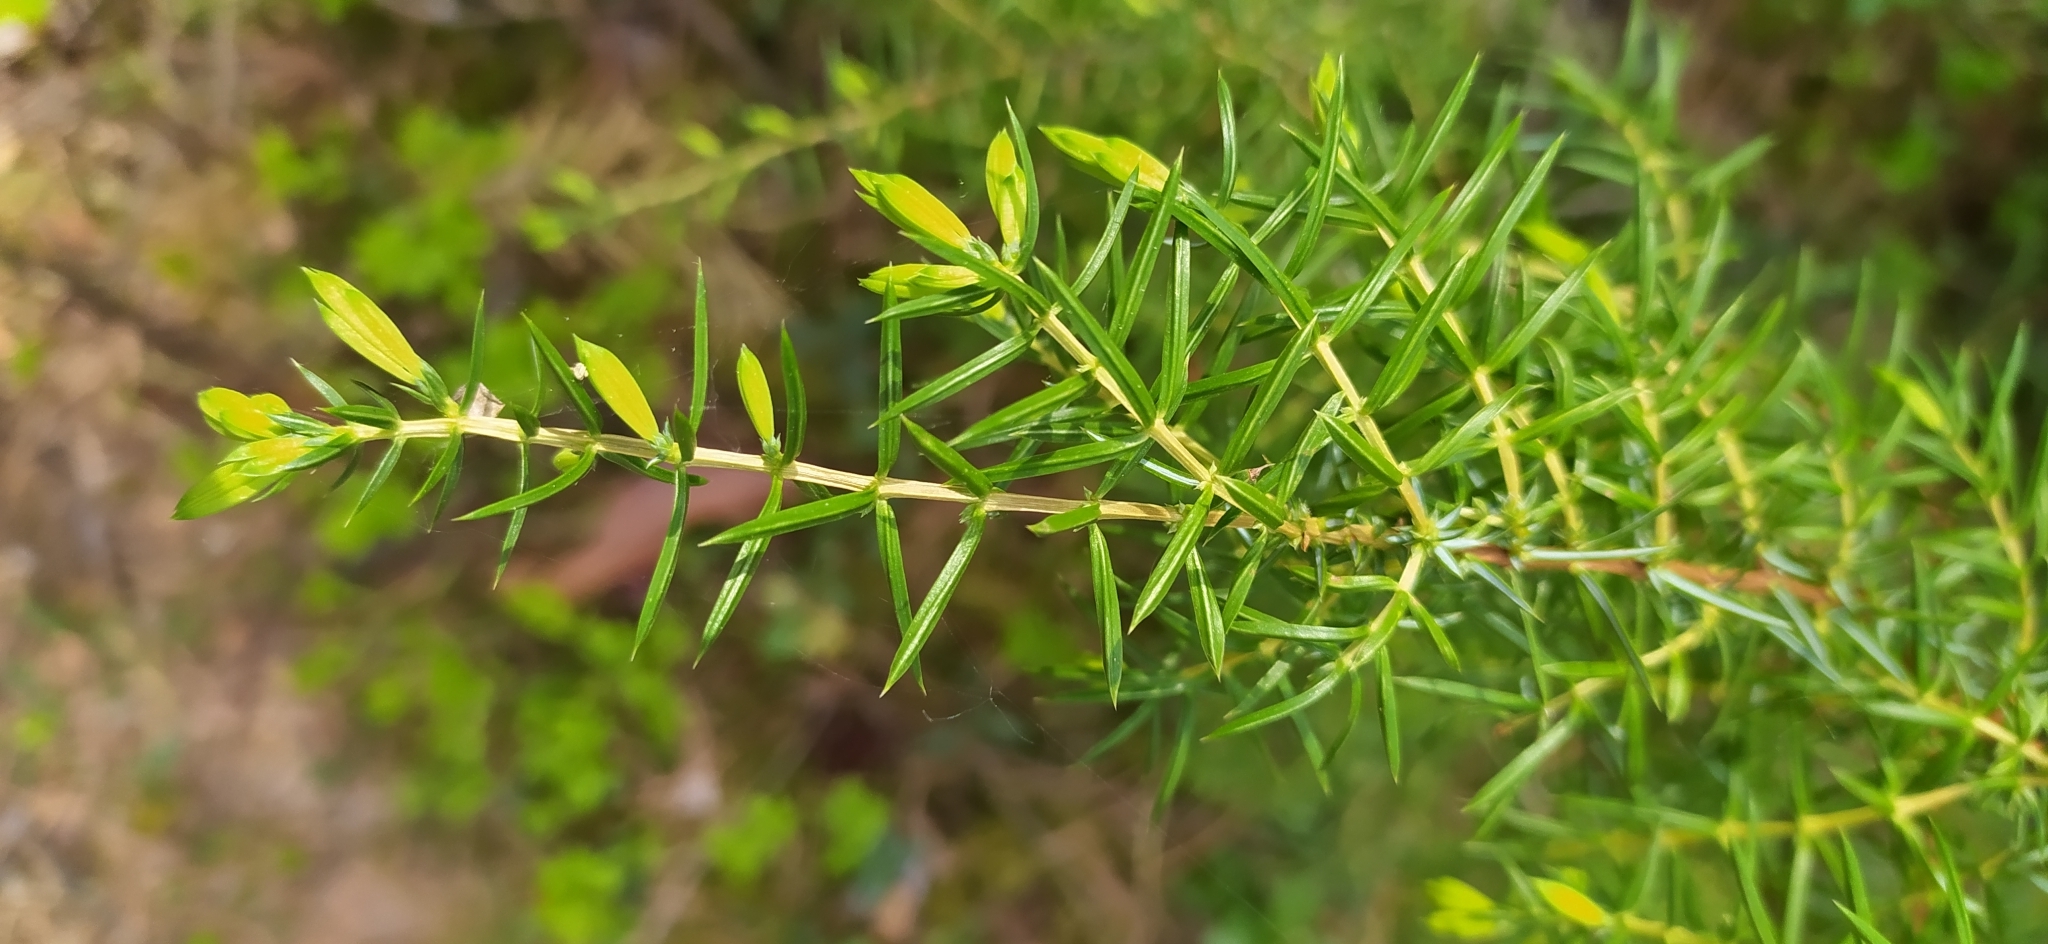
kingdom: Plantae
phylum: Tracheophyta
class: Pinopsida
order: Pinales
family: Cupressaceae
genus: Juniperus
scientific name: Juniperus communis
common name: Common juniper
